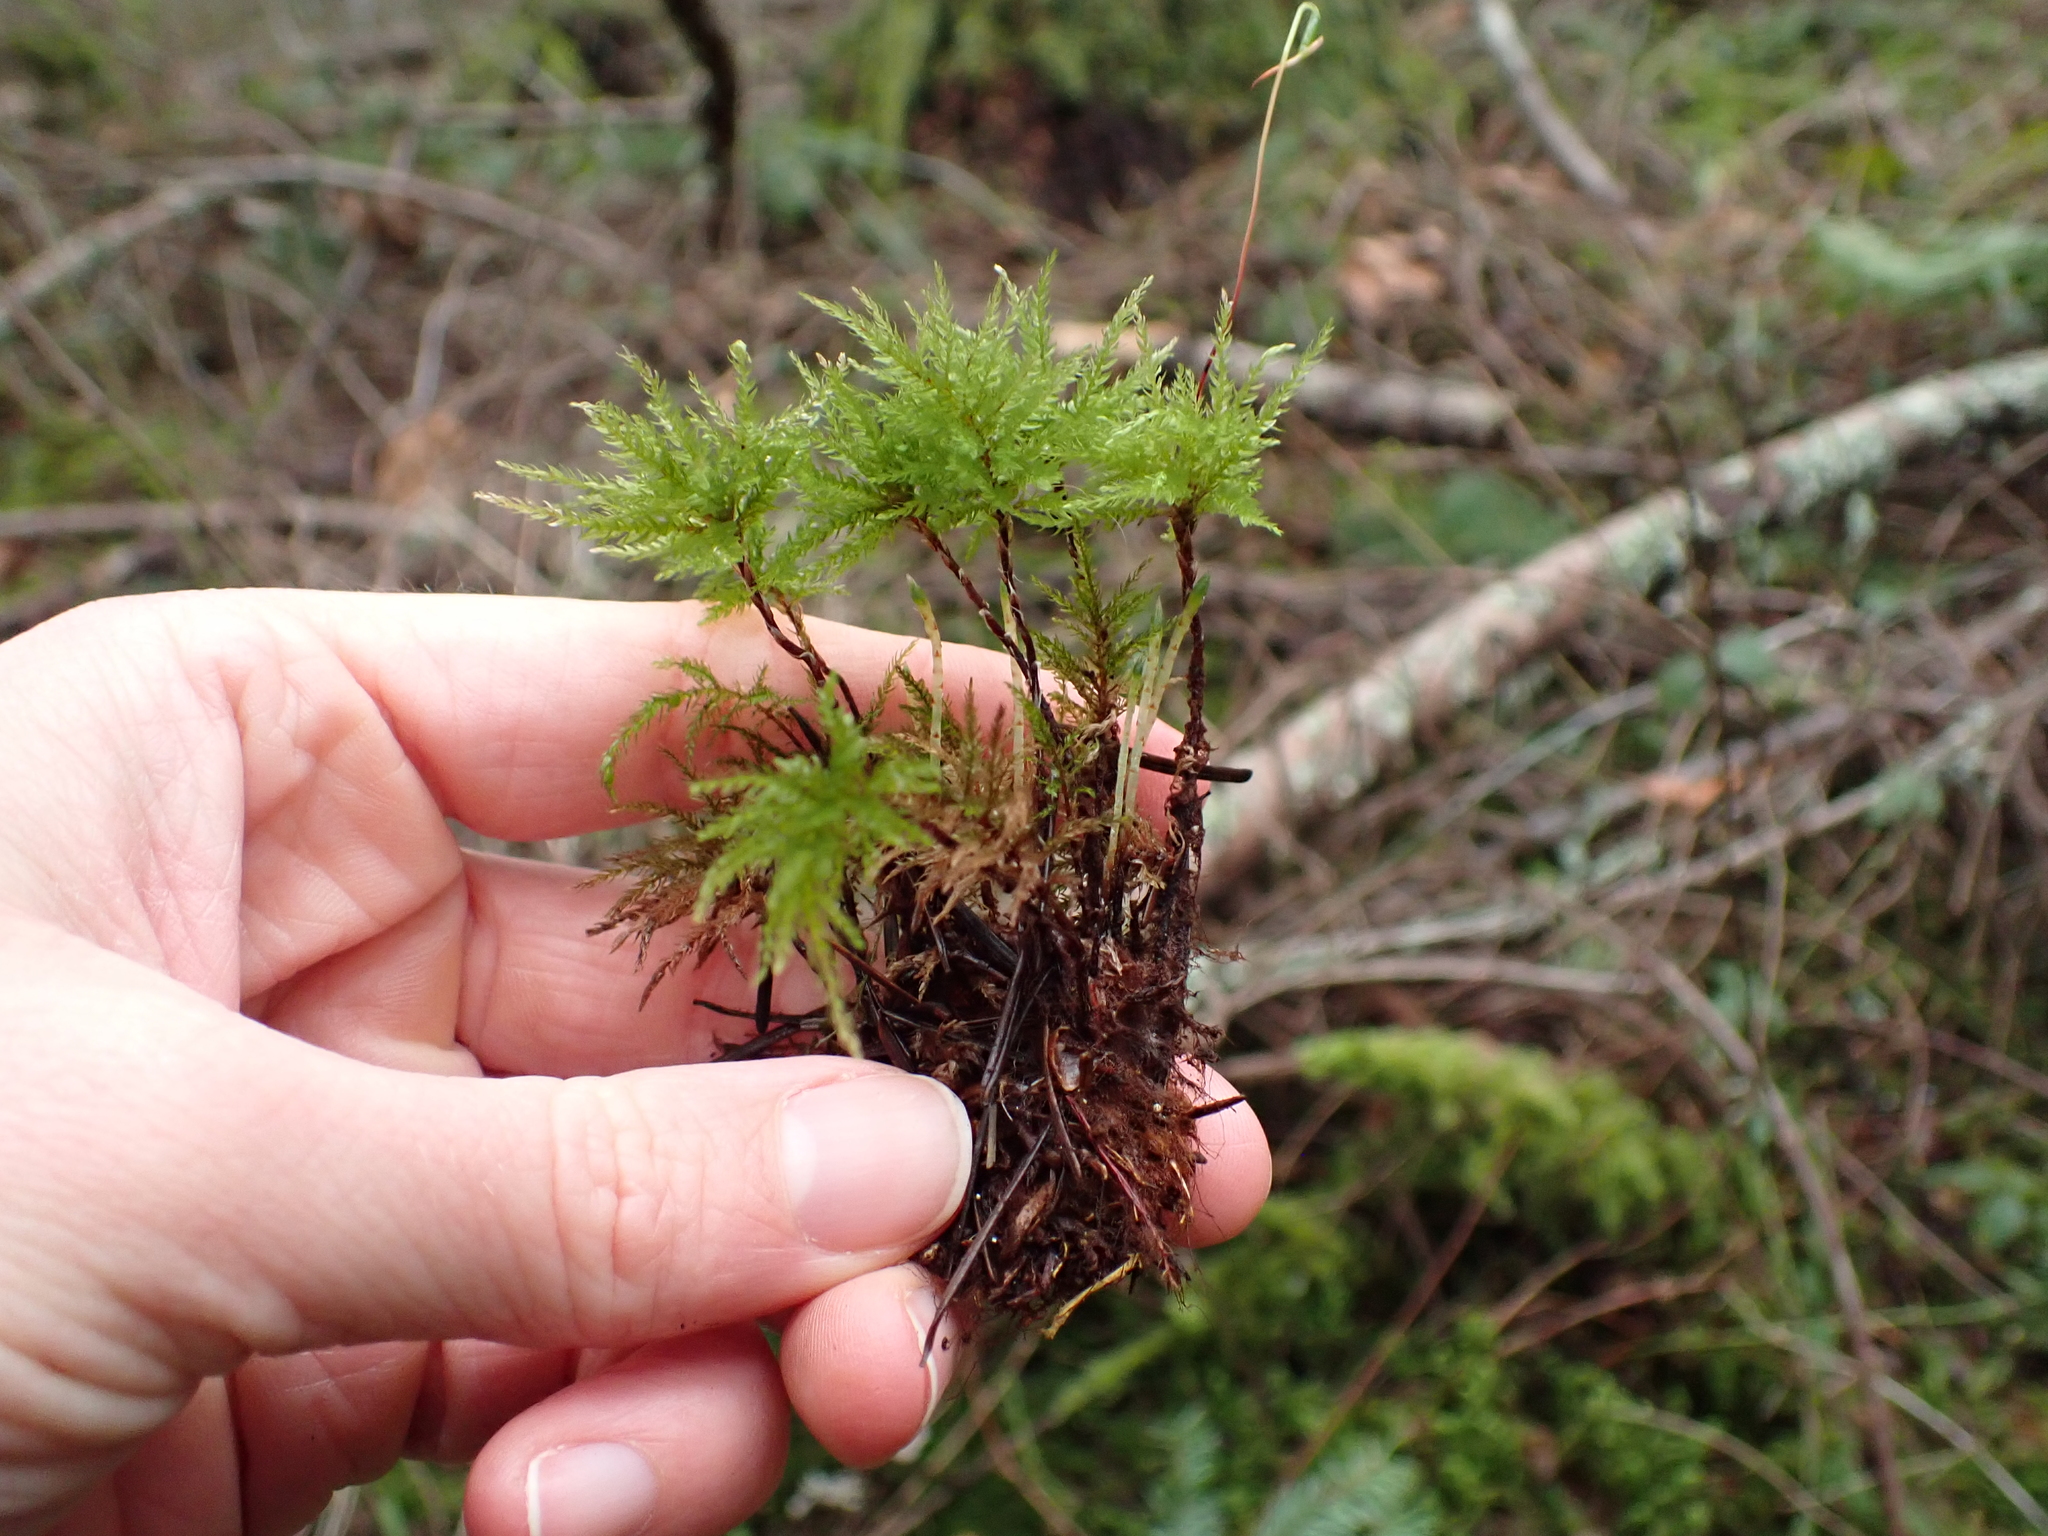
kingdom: Plantae
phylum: Bryophyta
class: Bryopsida
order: Bryales
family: Mniaceae
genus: Leucolepis
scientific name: Leucolepis acanthoneura
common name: Leucolepis umbrella moss
